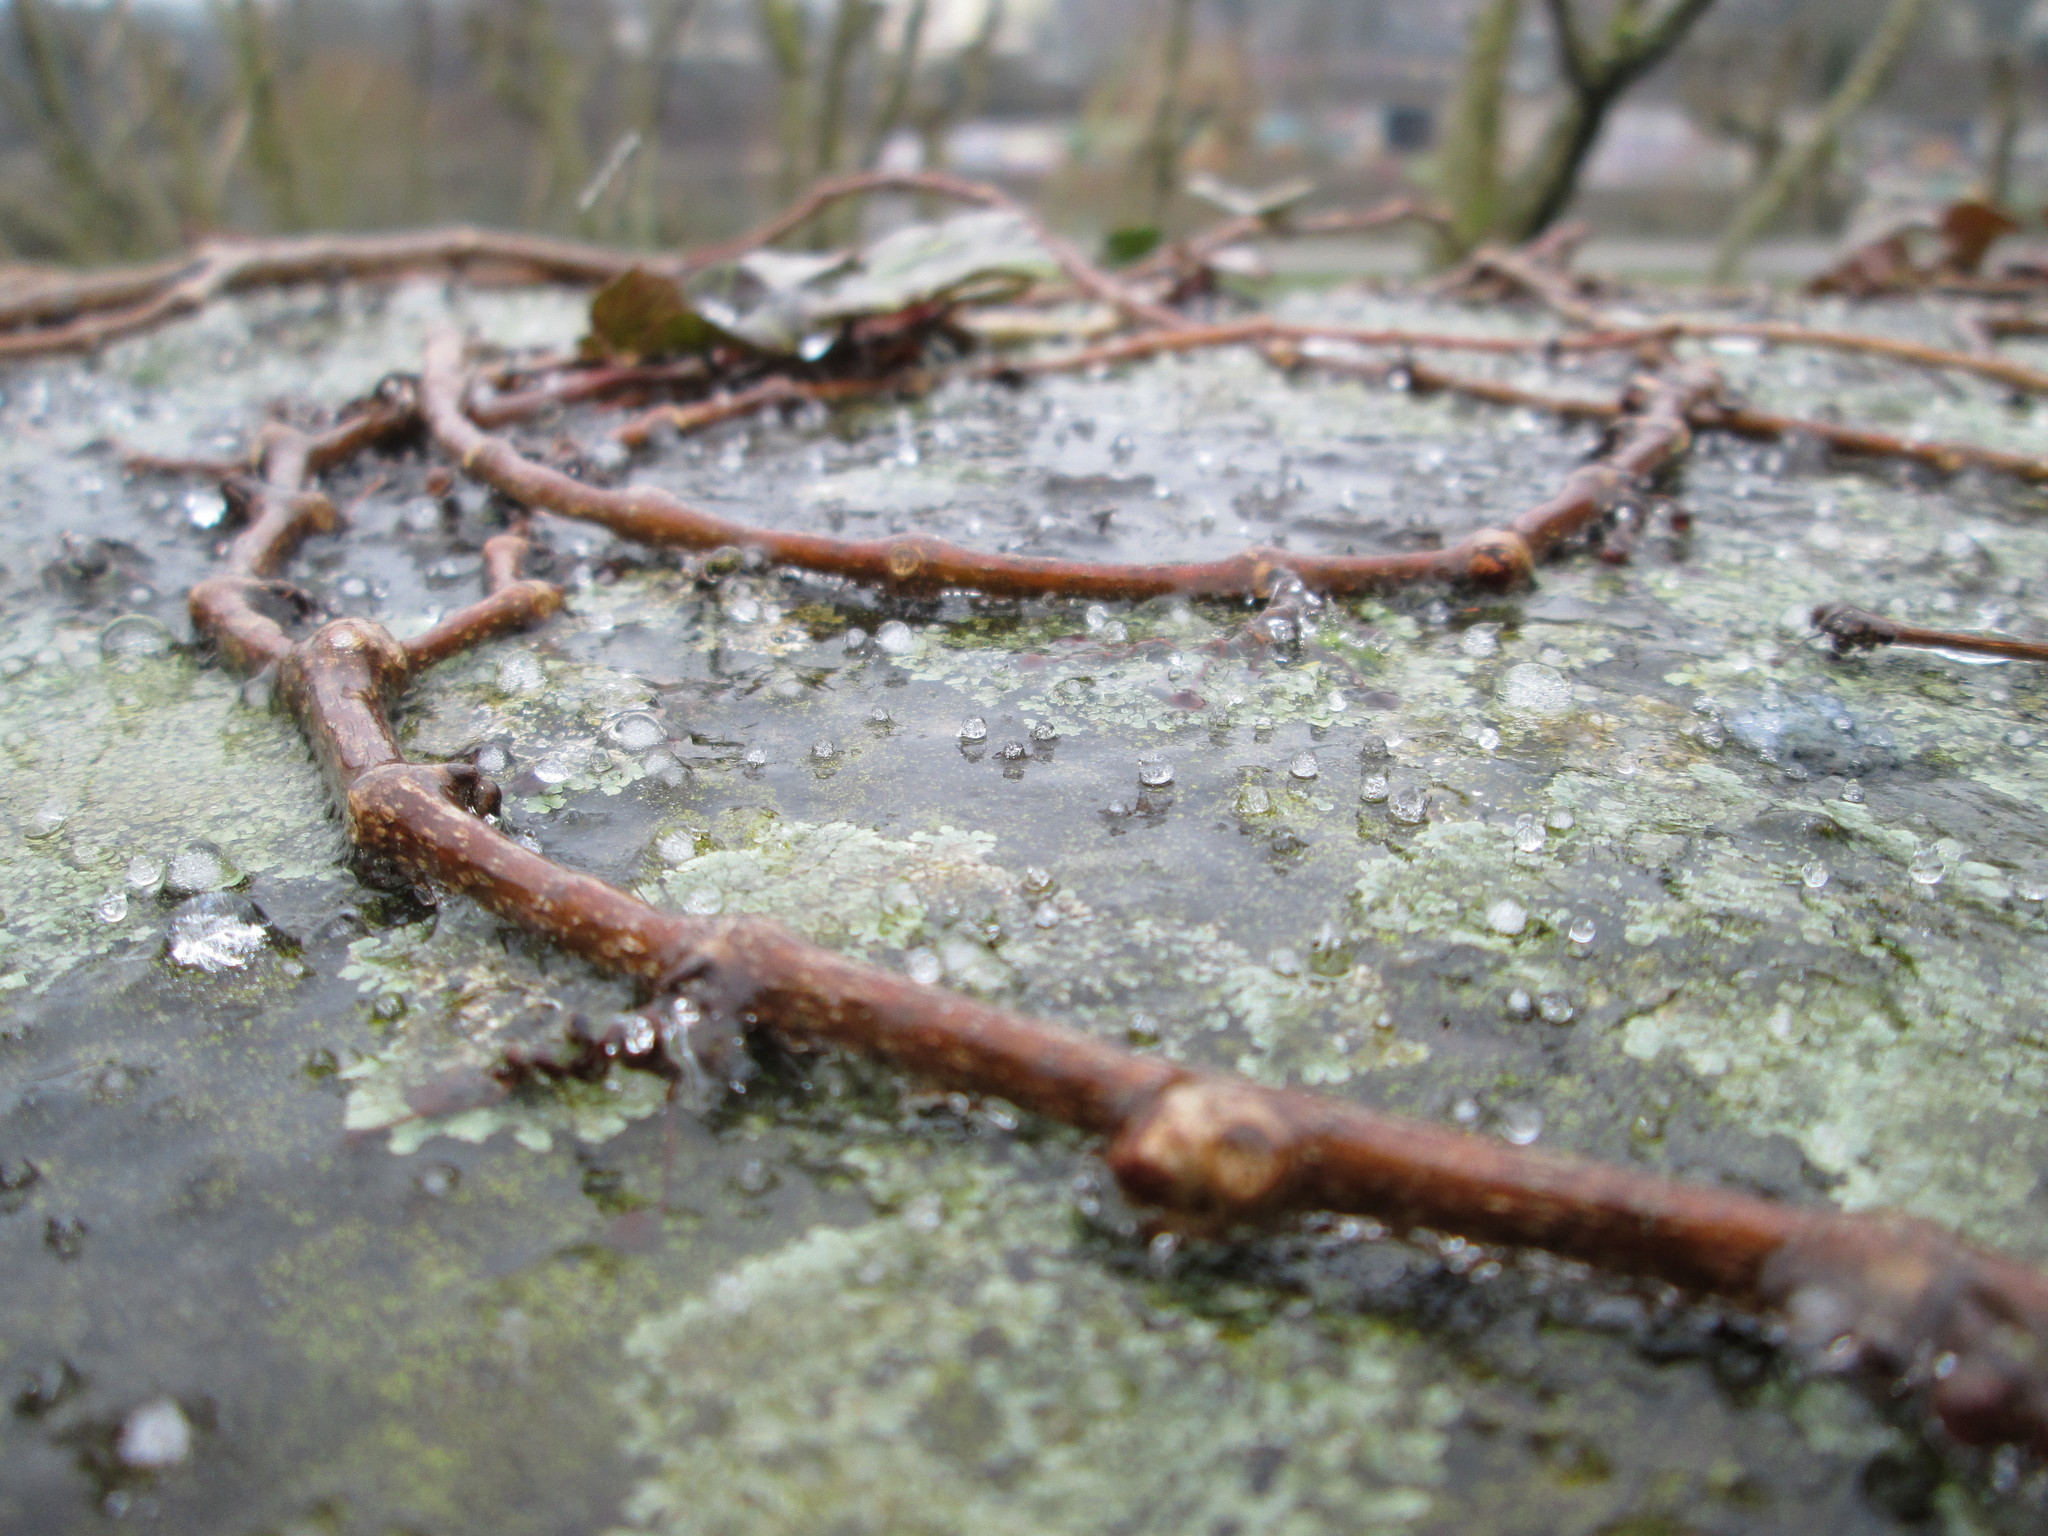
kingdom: Plantae
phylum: Tracheophyta
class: Magnoliopsida
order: Apiales
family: Araliaceae
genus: Hedera
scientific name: Hedera helix
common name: Ivy
